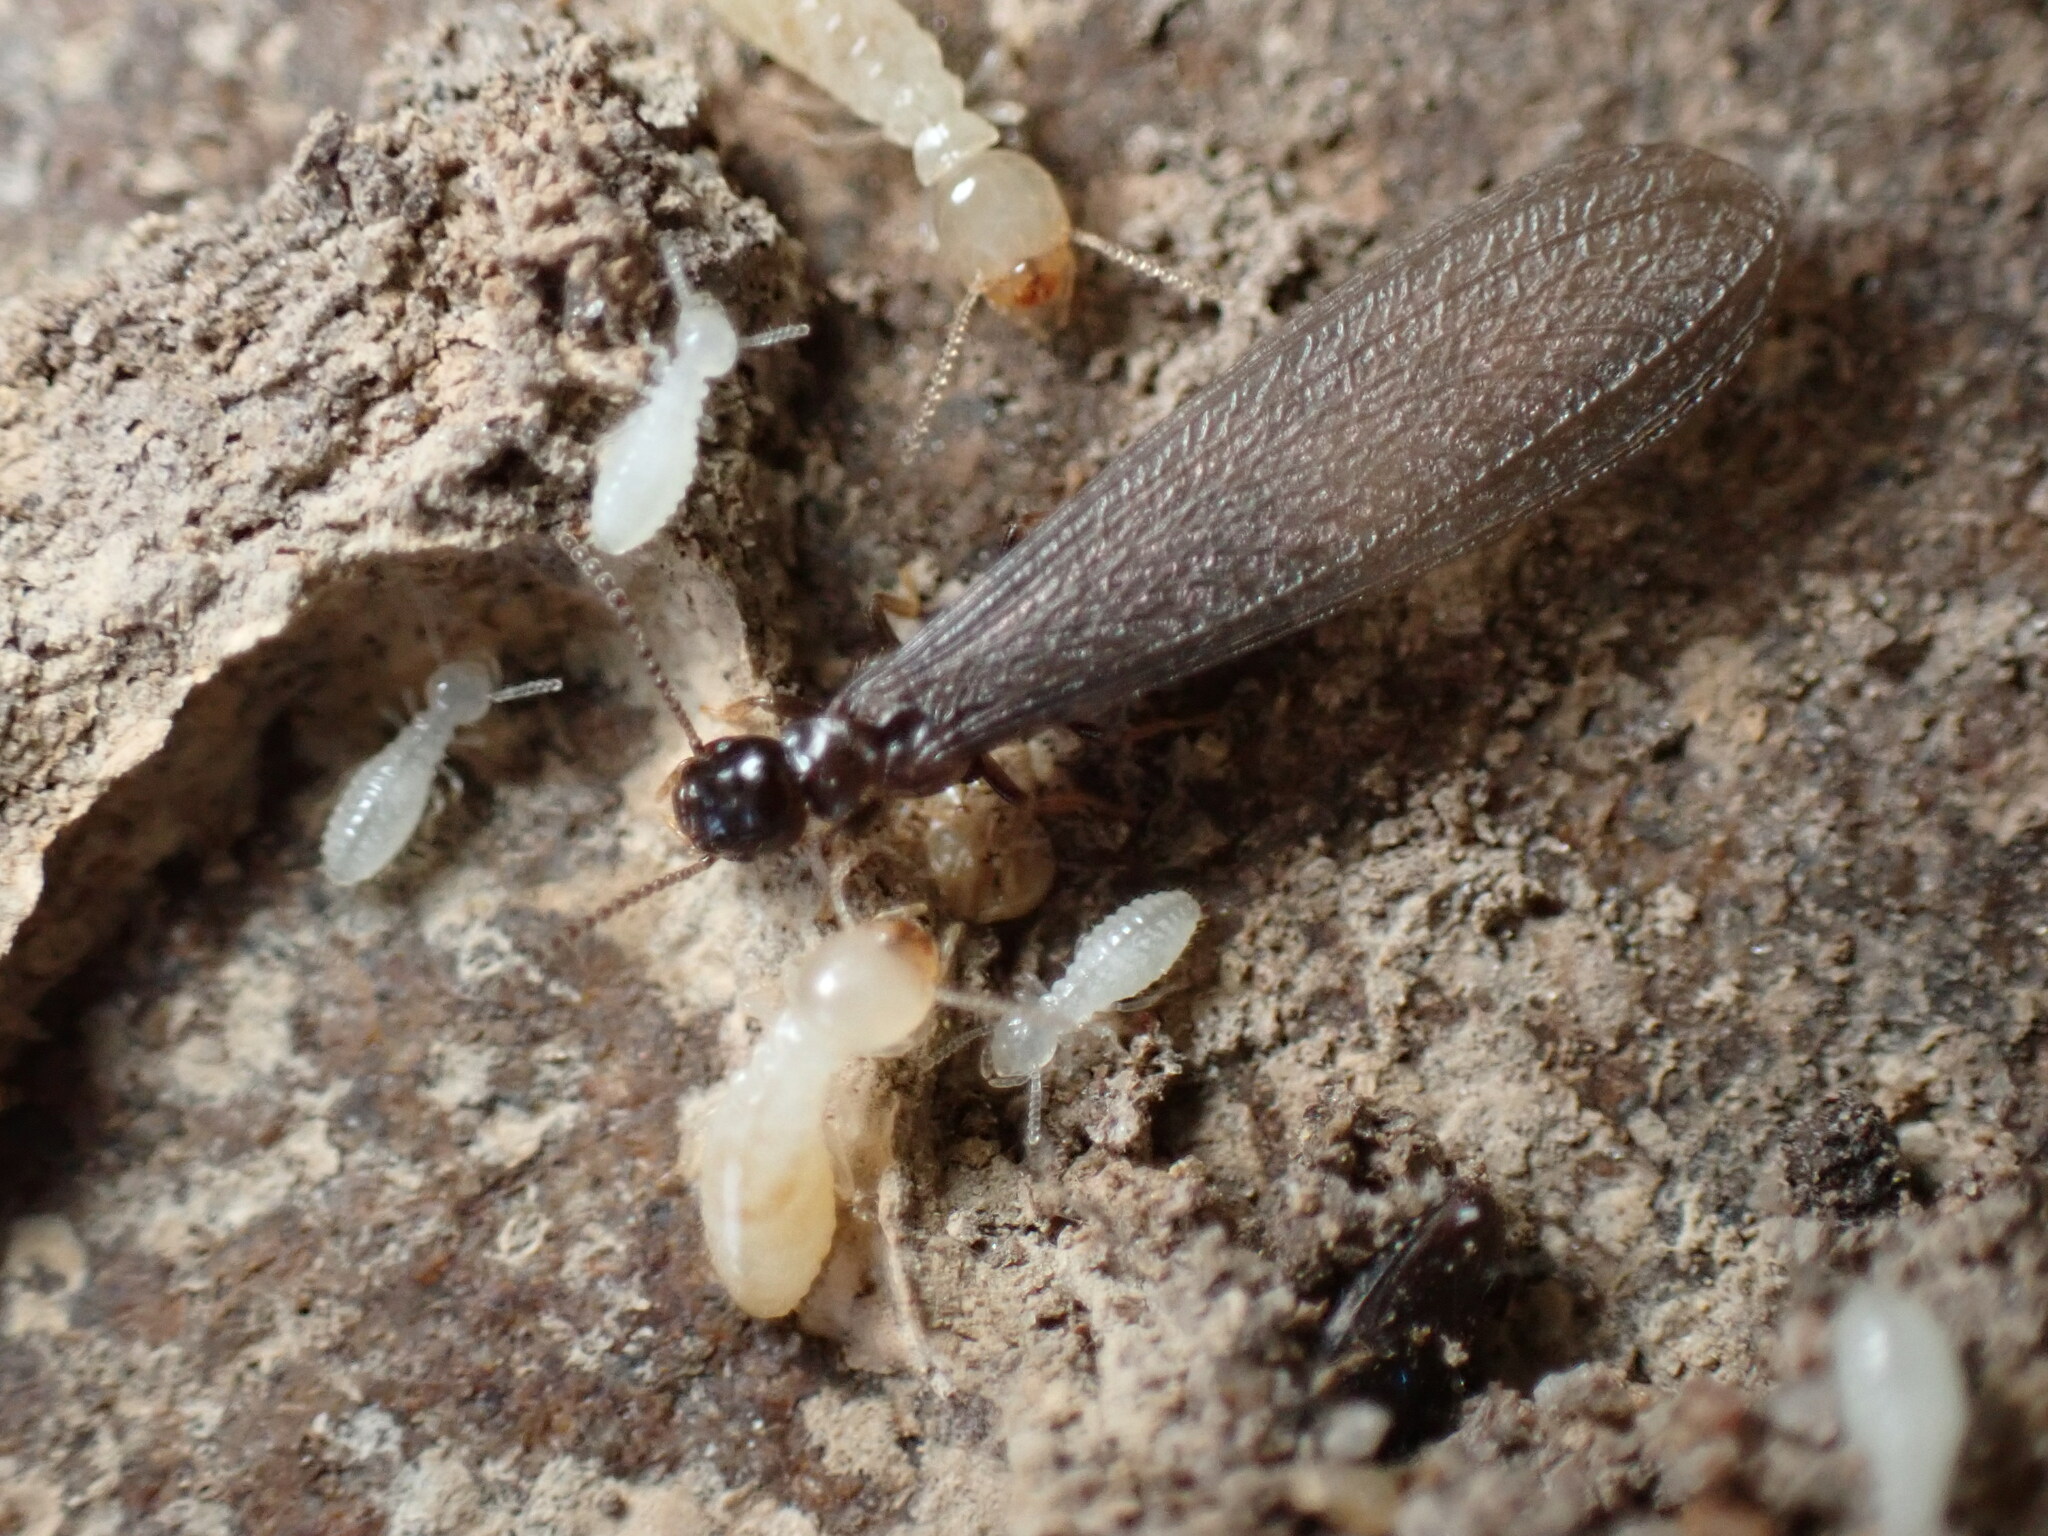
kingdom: Animalia
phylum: Arthropoda
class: Insecta
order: Blattodea
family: Rhinotermitidae
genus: Reticulitermes
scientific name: Reticulitermes flavipes
